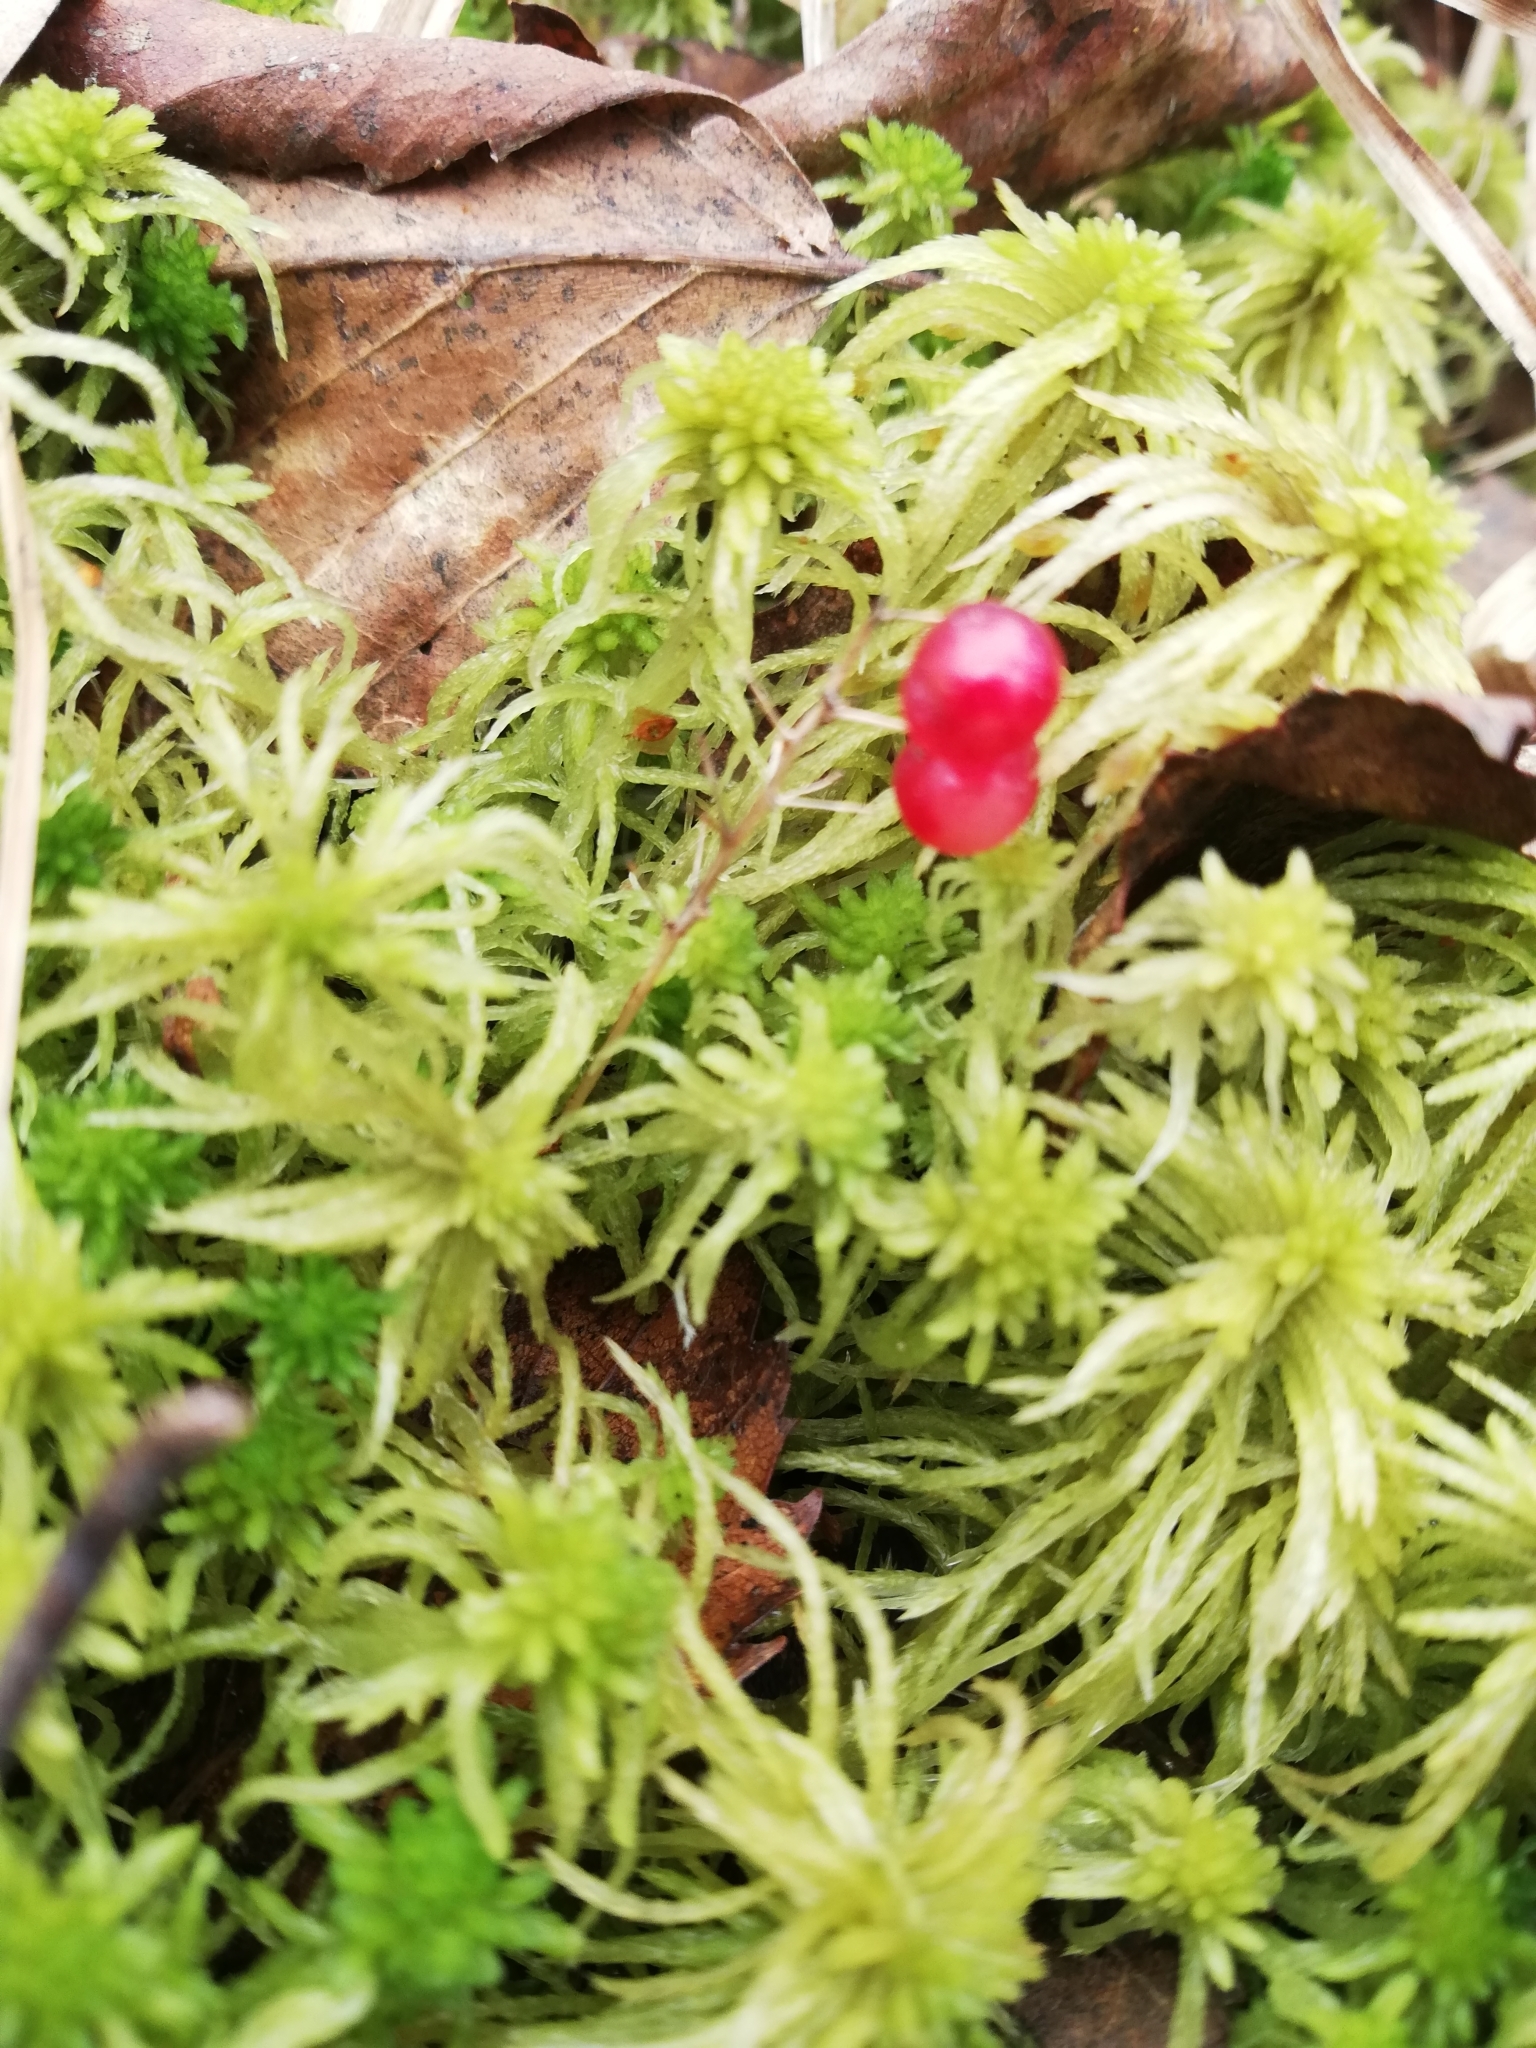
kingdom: Plantae
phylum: Tracheophyta
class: Liliopsida
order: Asparagales
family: Asparagaceae
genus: Maianthemum
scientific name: Maianthemum bifolium
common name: May lily
